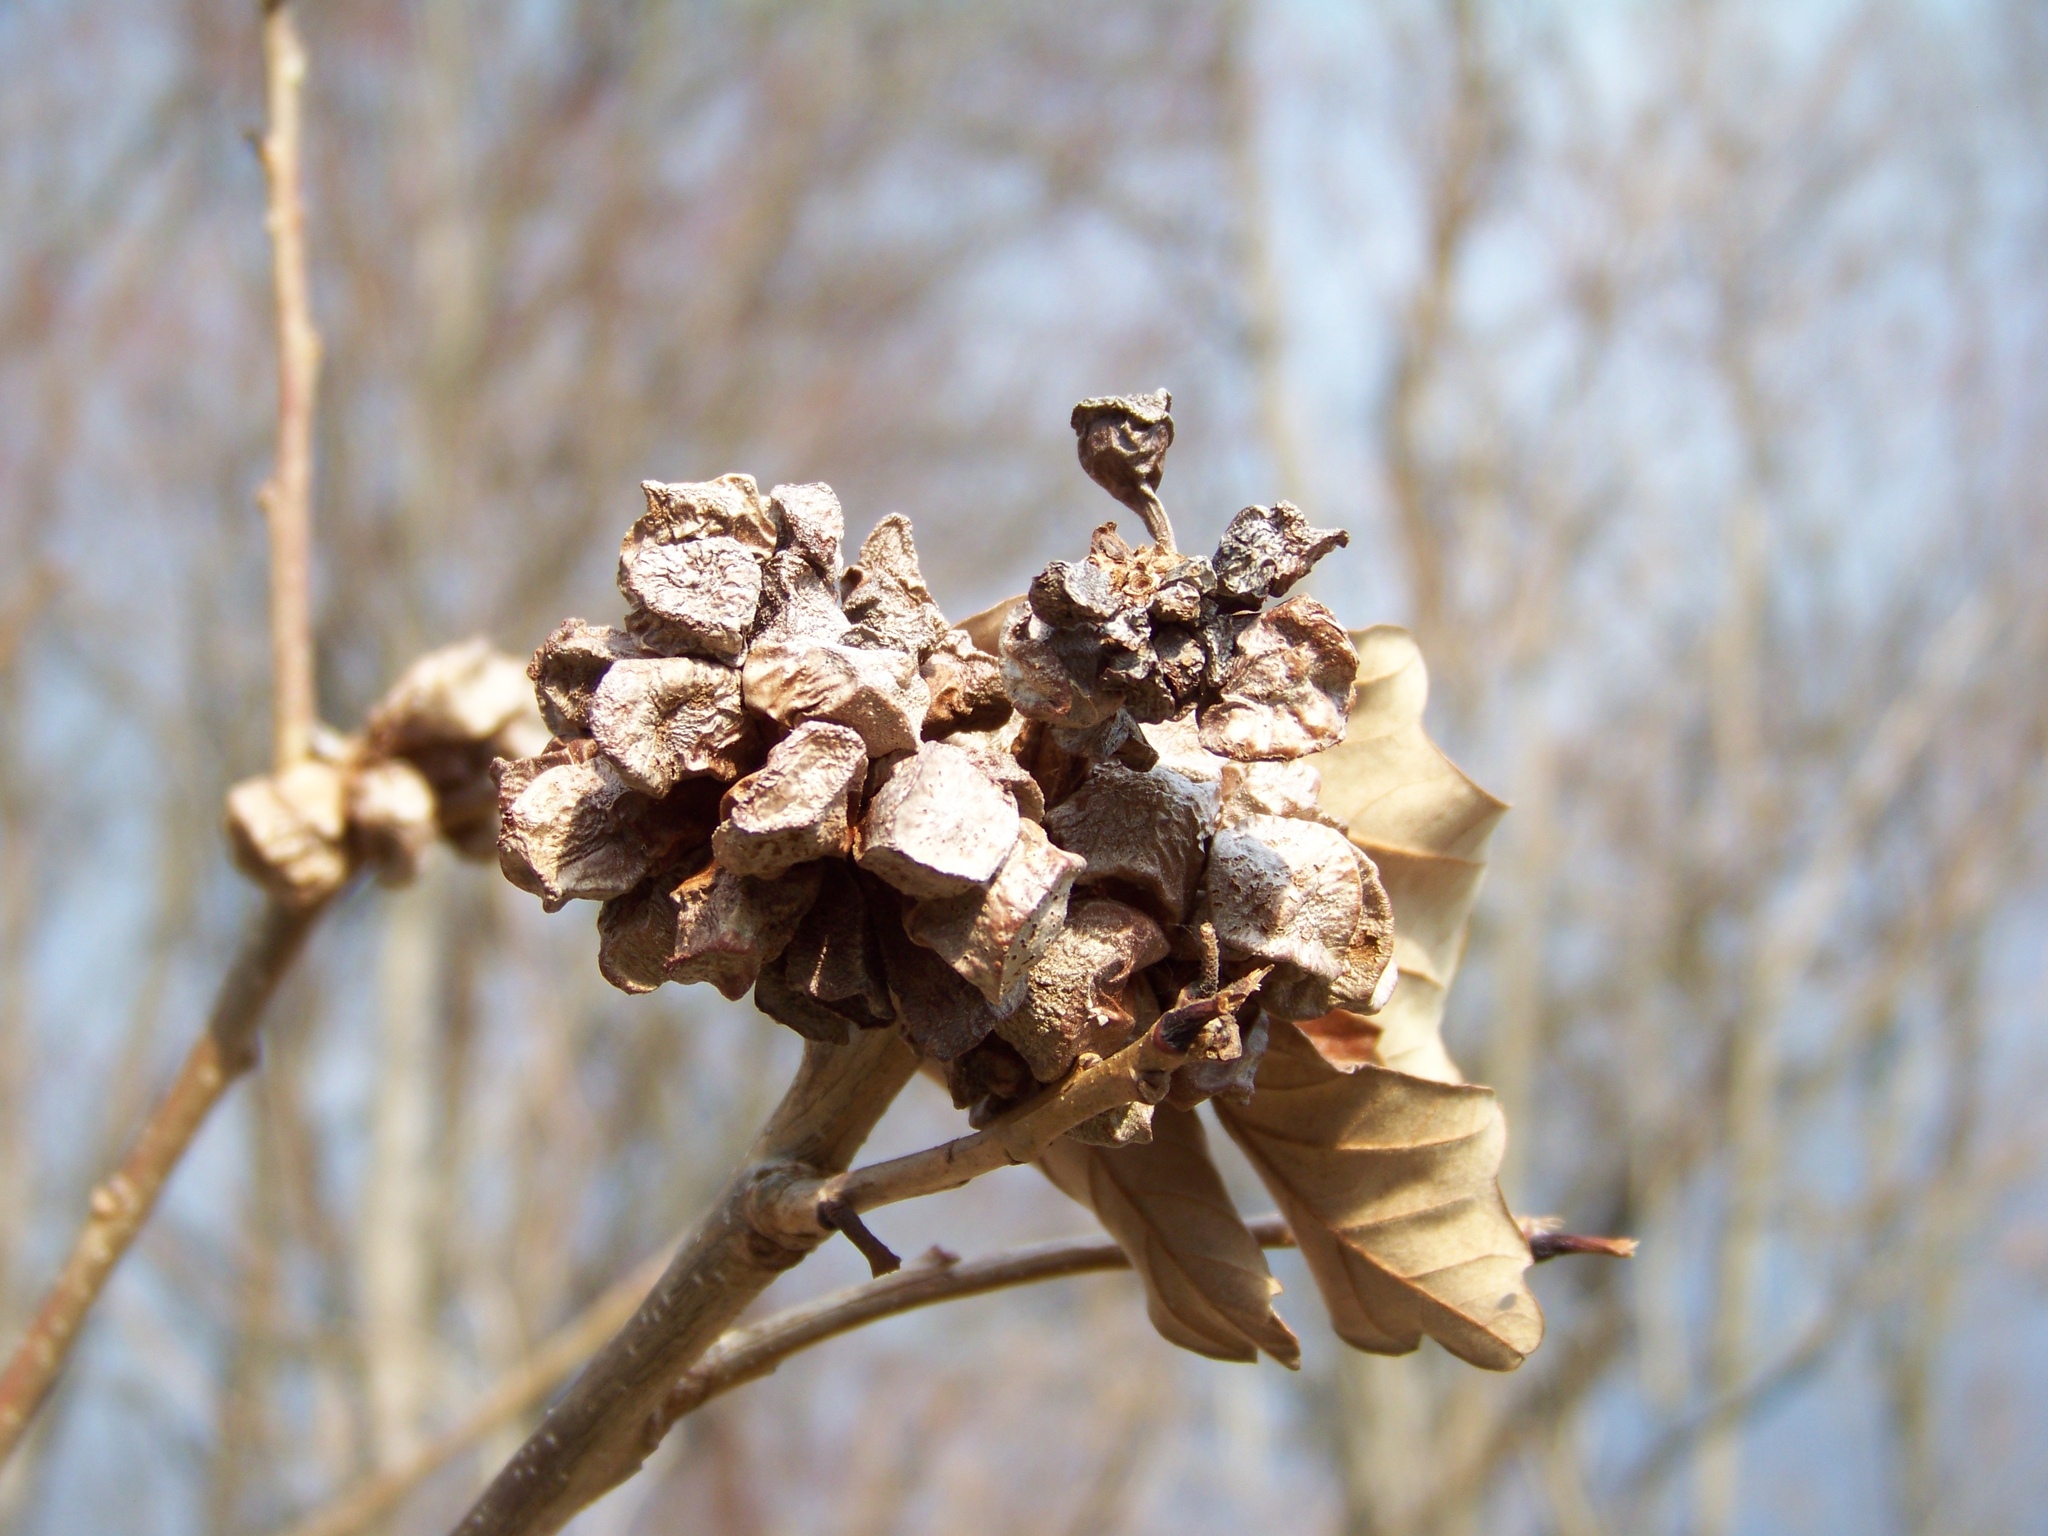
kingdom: Animalia
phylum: Arthropoda
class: Insecta
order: Hymenoptera
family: Cynipidae
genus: Andricus
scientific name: Andricus
